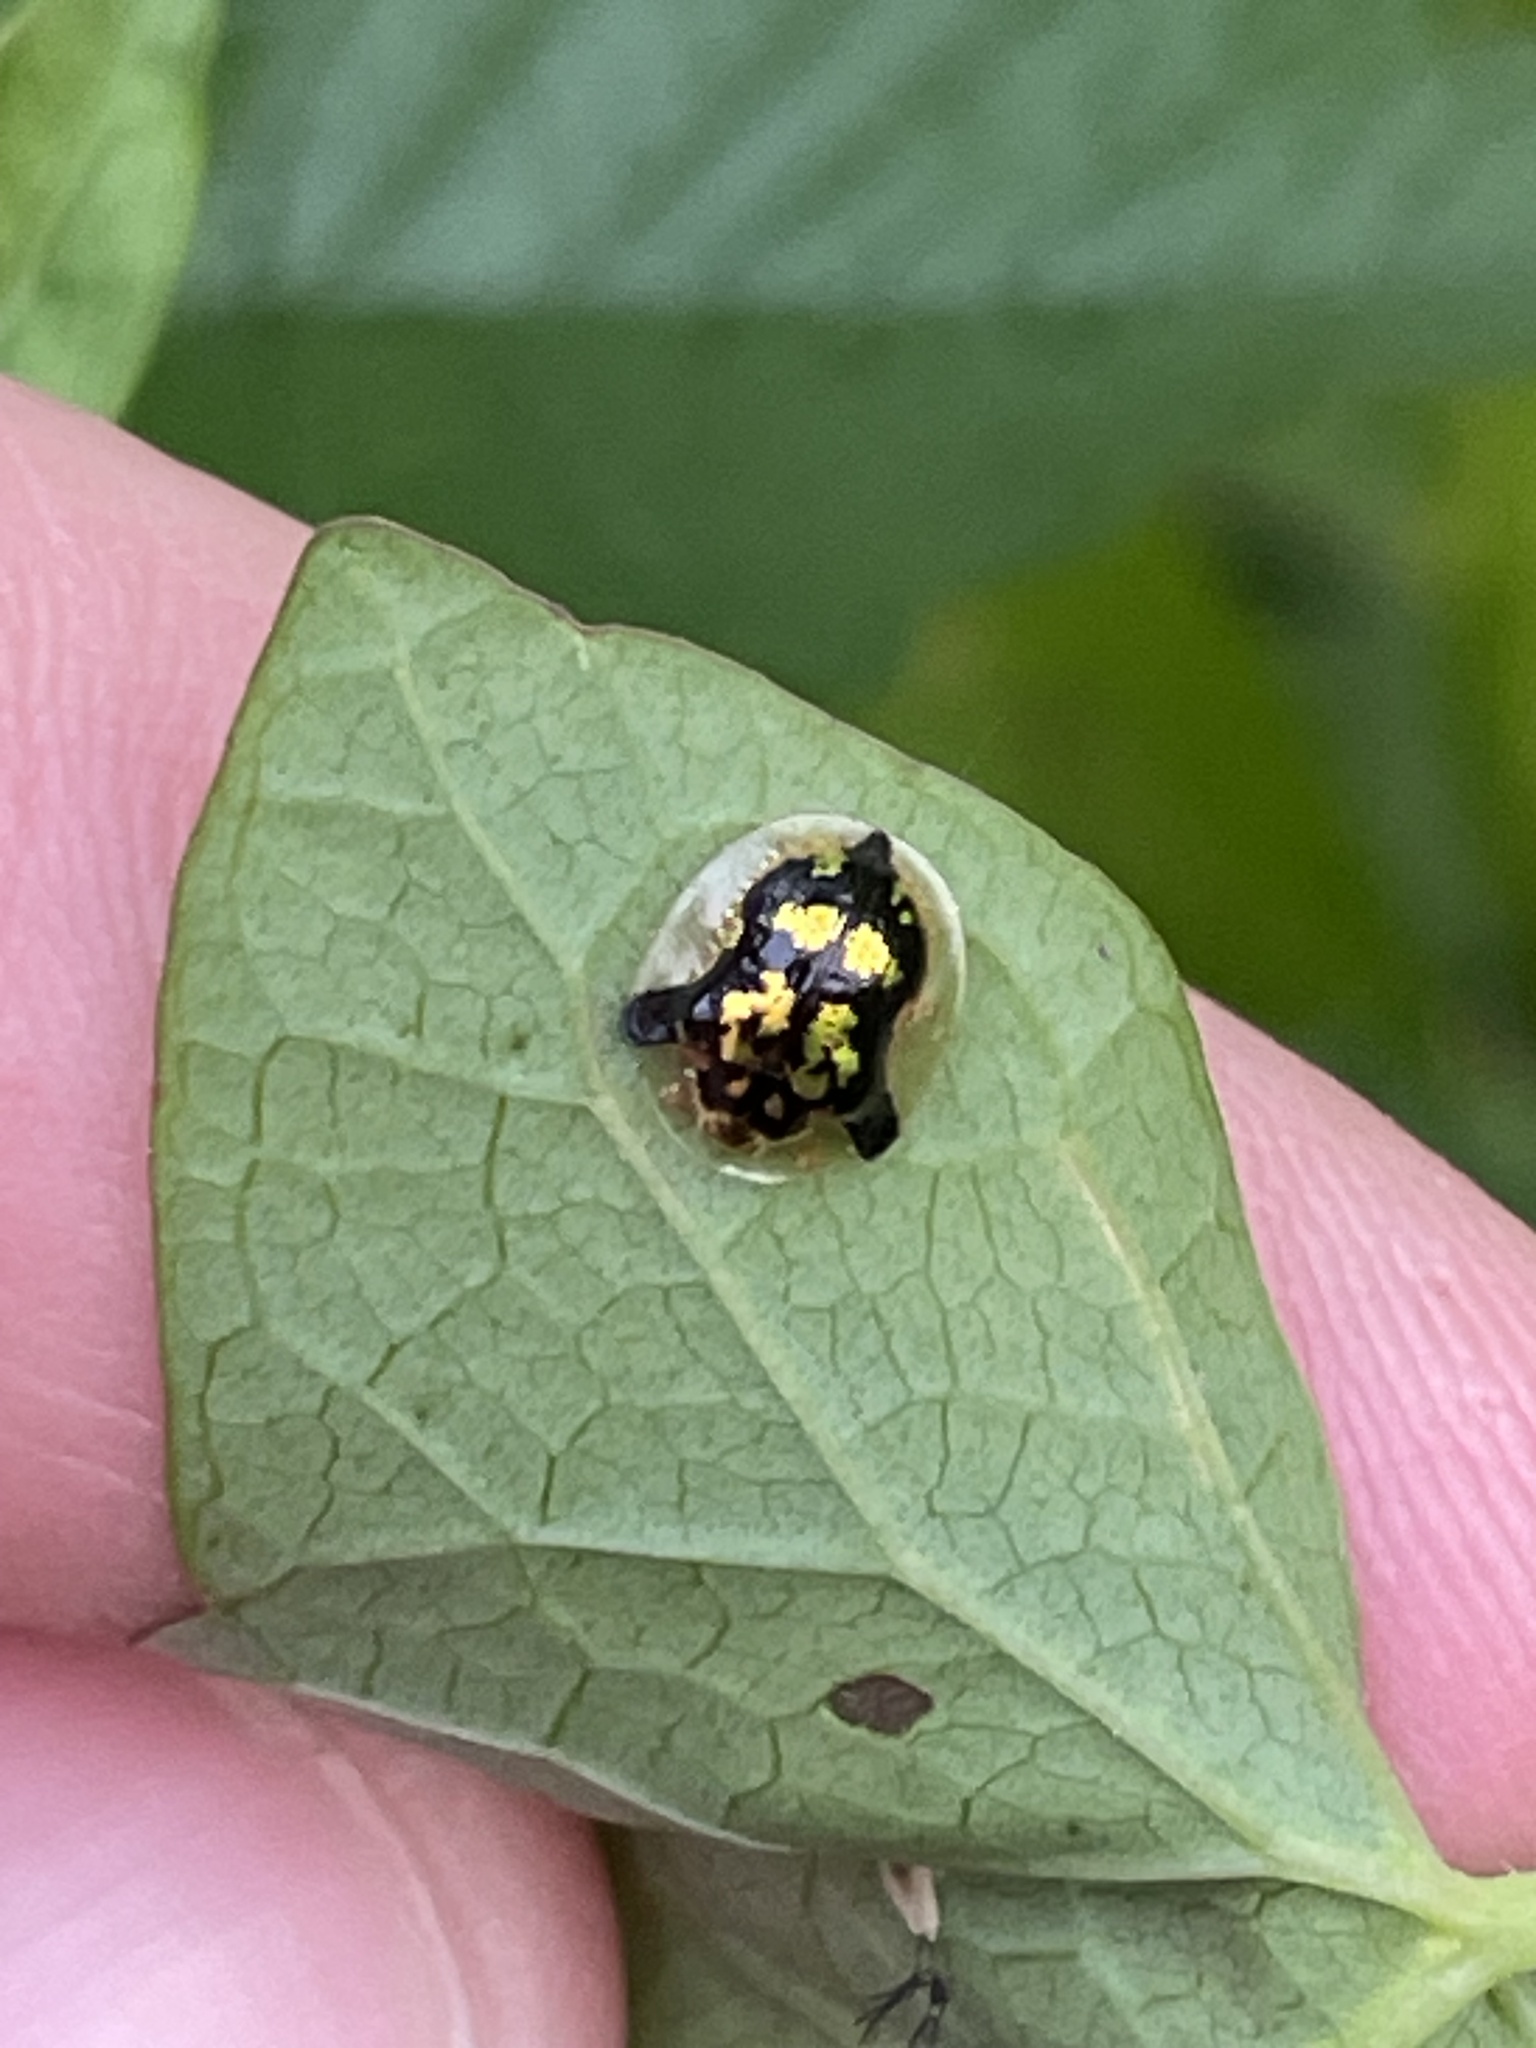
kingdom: Animalia
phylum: Arthropoda
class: Insecta
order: Coleoptera
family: Chrysomelidae
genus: Deloyala
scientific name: Deloyala guttata
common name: Mottled tortoise beetle
